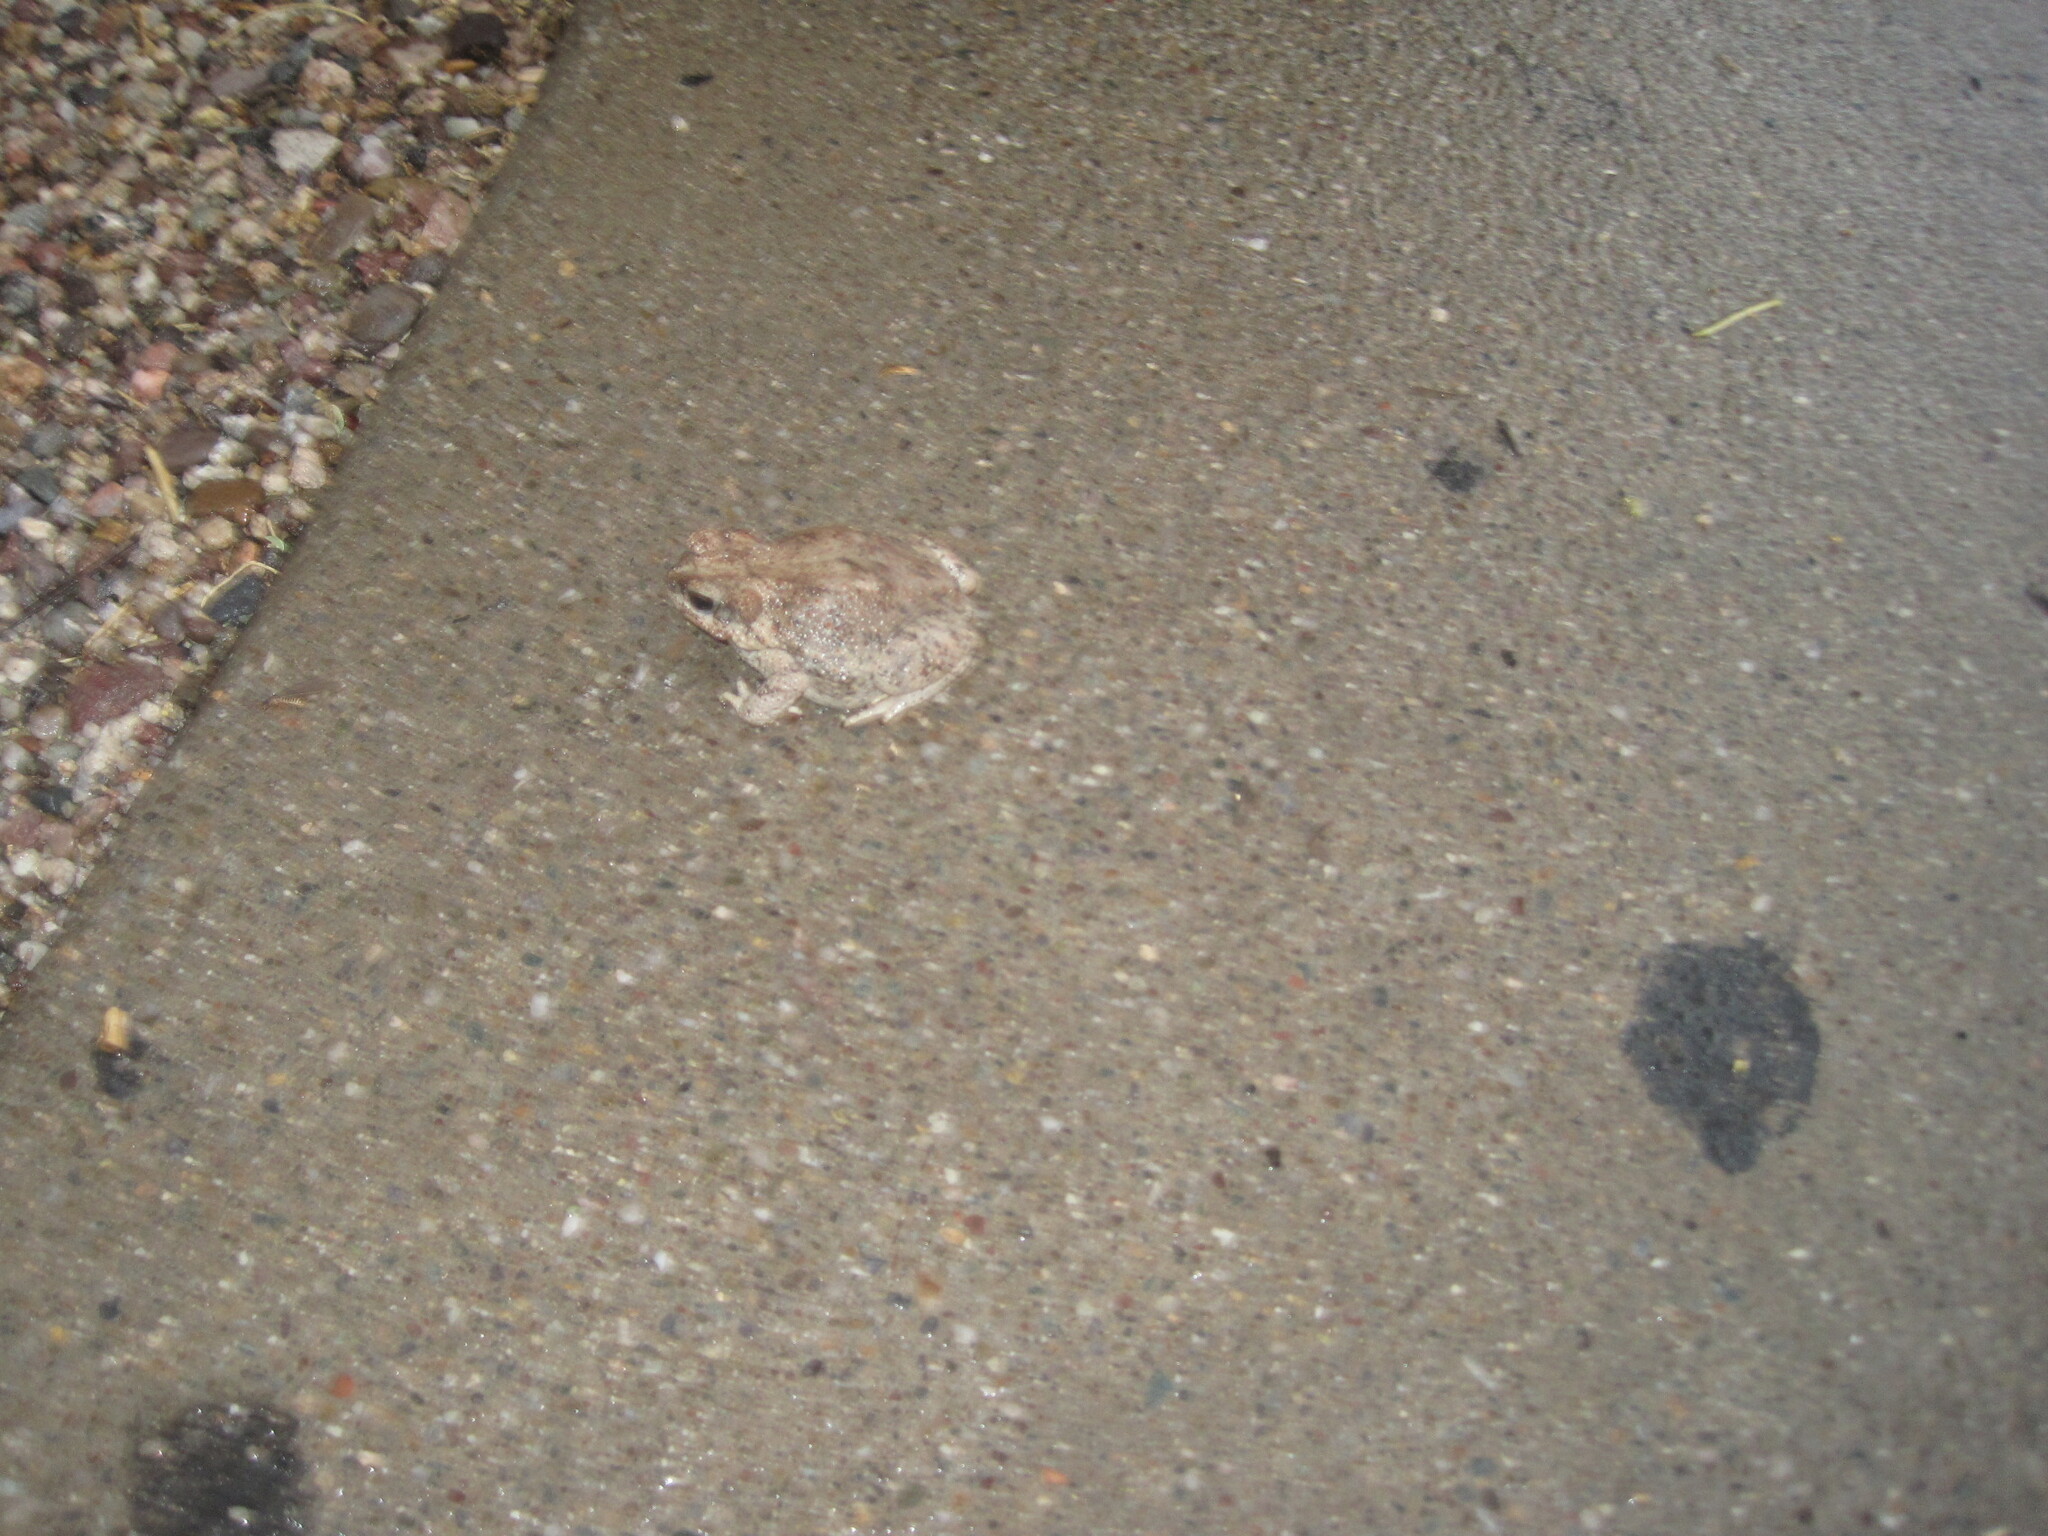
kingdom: Animalia
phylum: Chordata
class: Amphibia
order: Anura
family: Bufonidae
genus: Anaxyrus
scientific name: Anaxyrus punctatus
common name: Red-spotted toad
